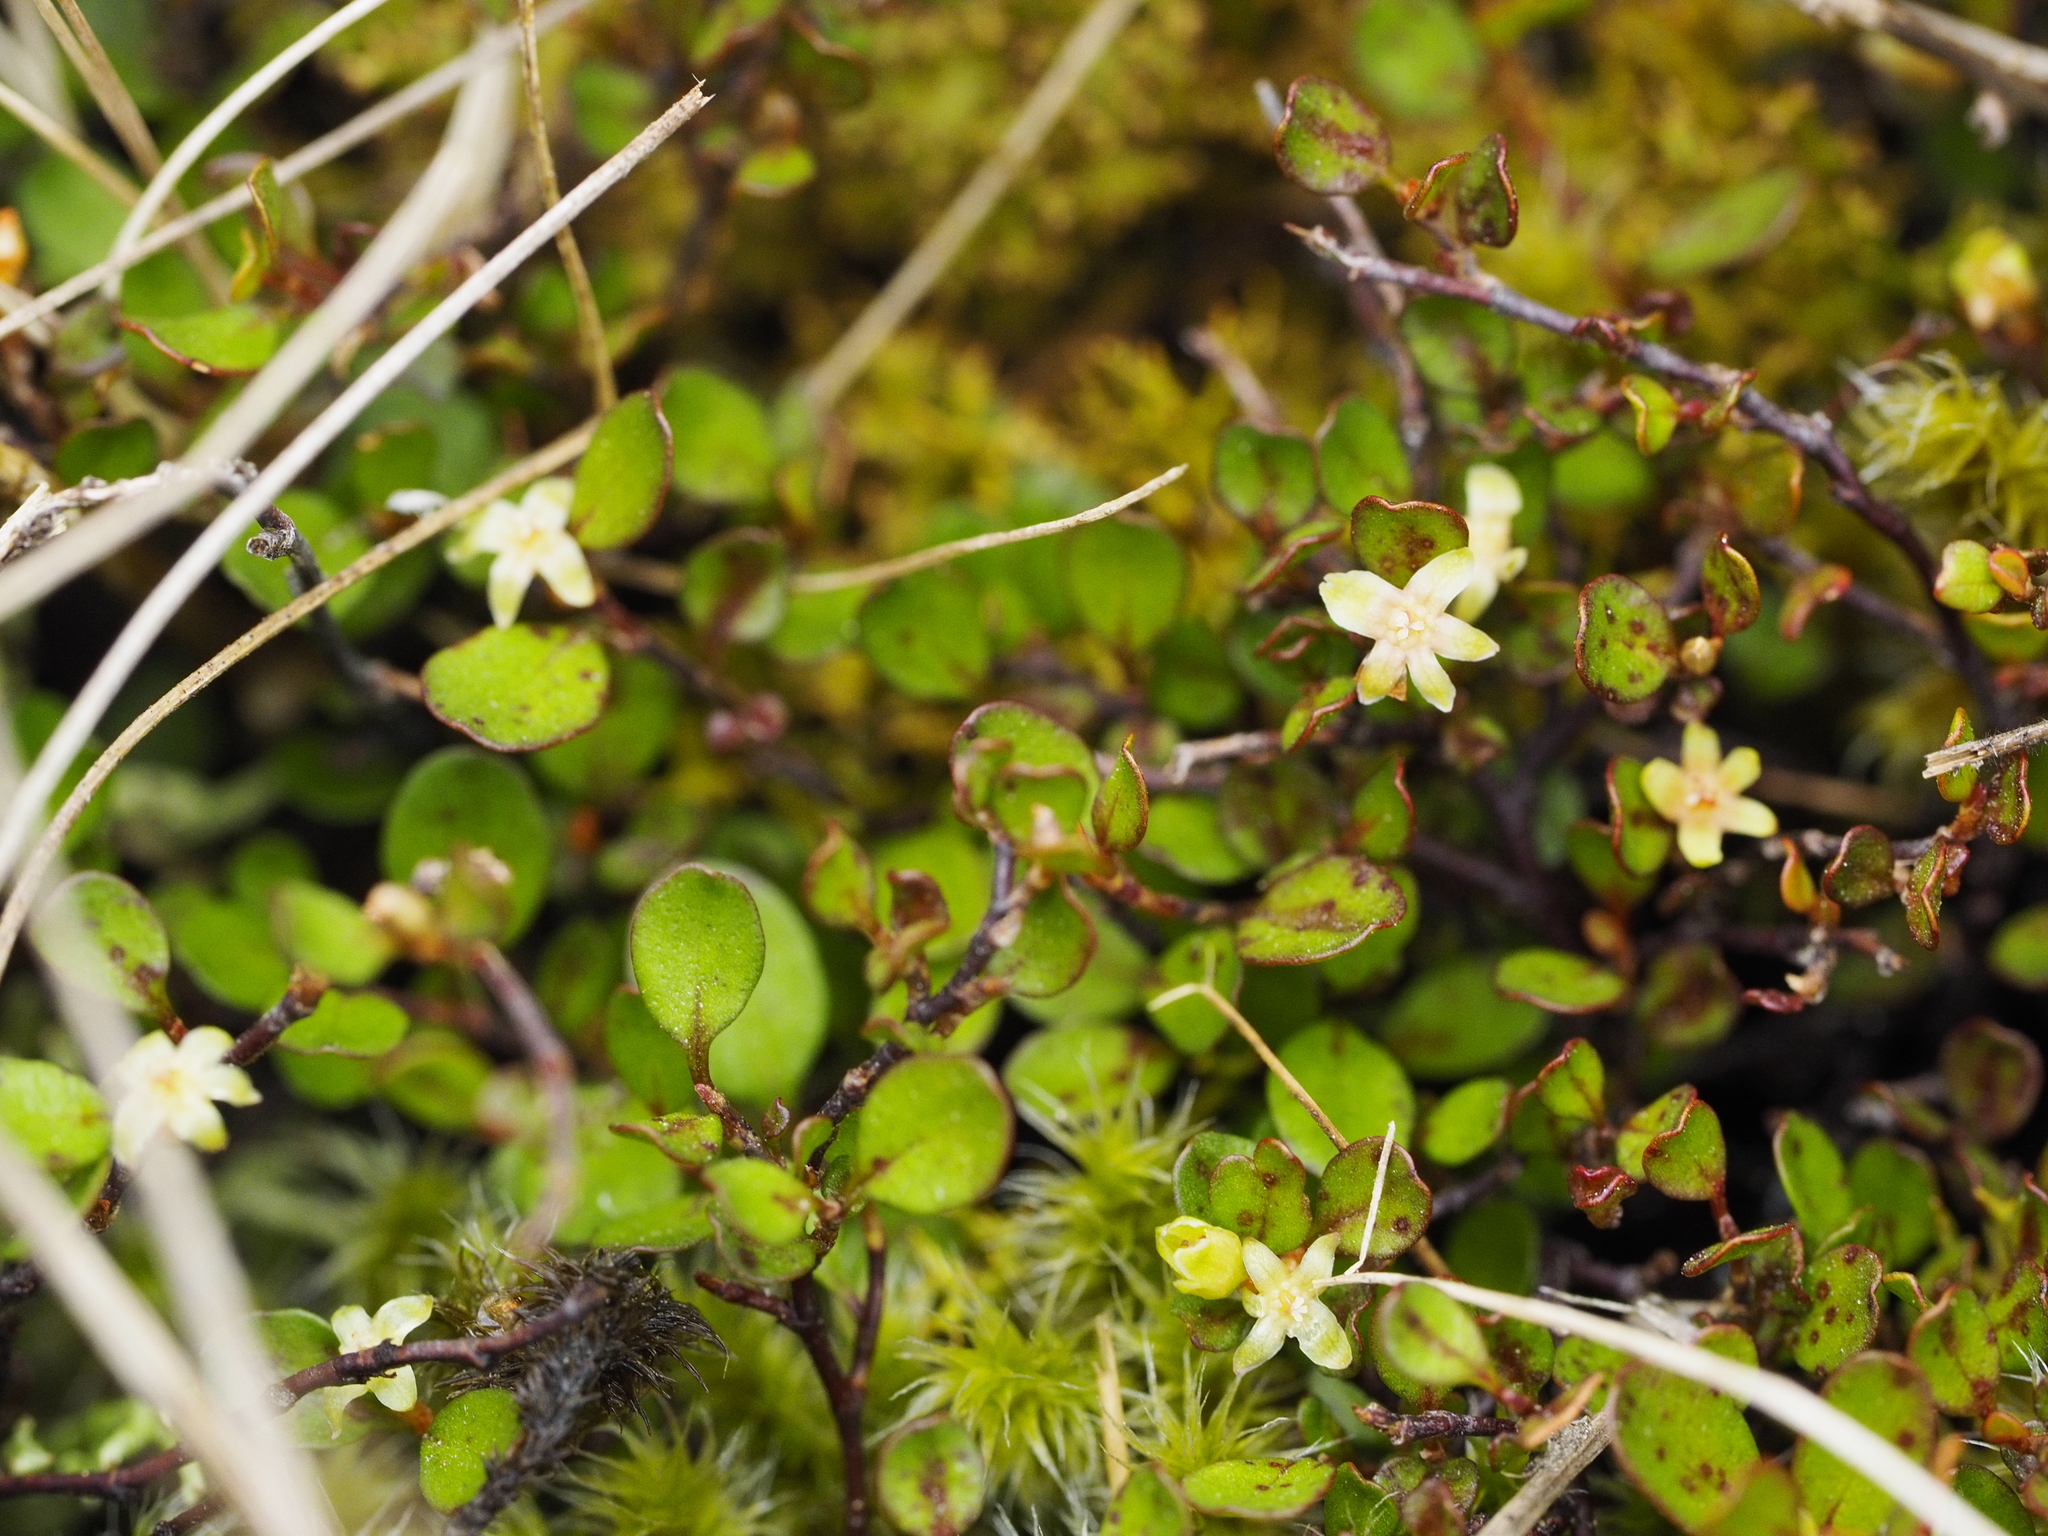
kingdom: Plantae
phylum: Tracheophyta
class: Magnoliopsida
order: Caryophyllales
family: Polygonaceae
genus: Muehlenbeckia
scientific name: Muehlenbeckia axillaris
